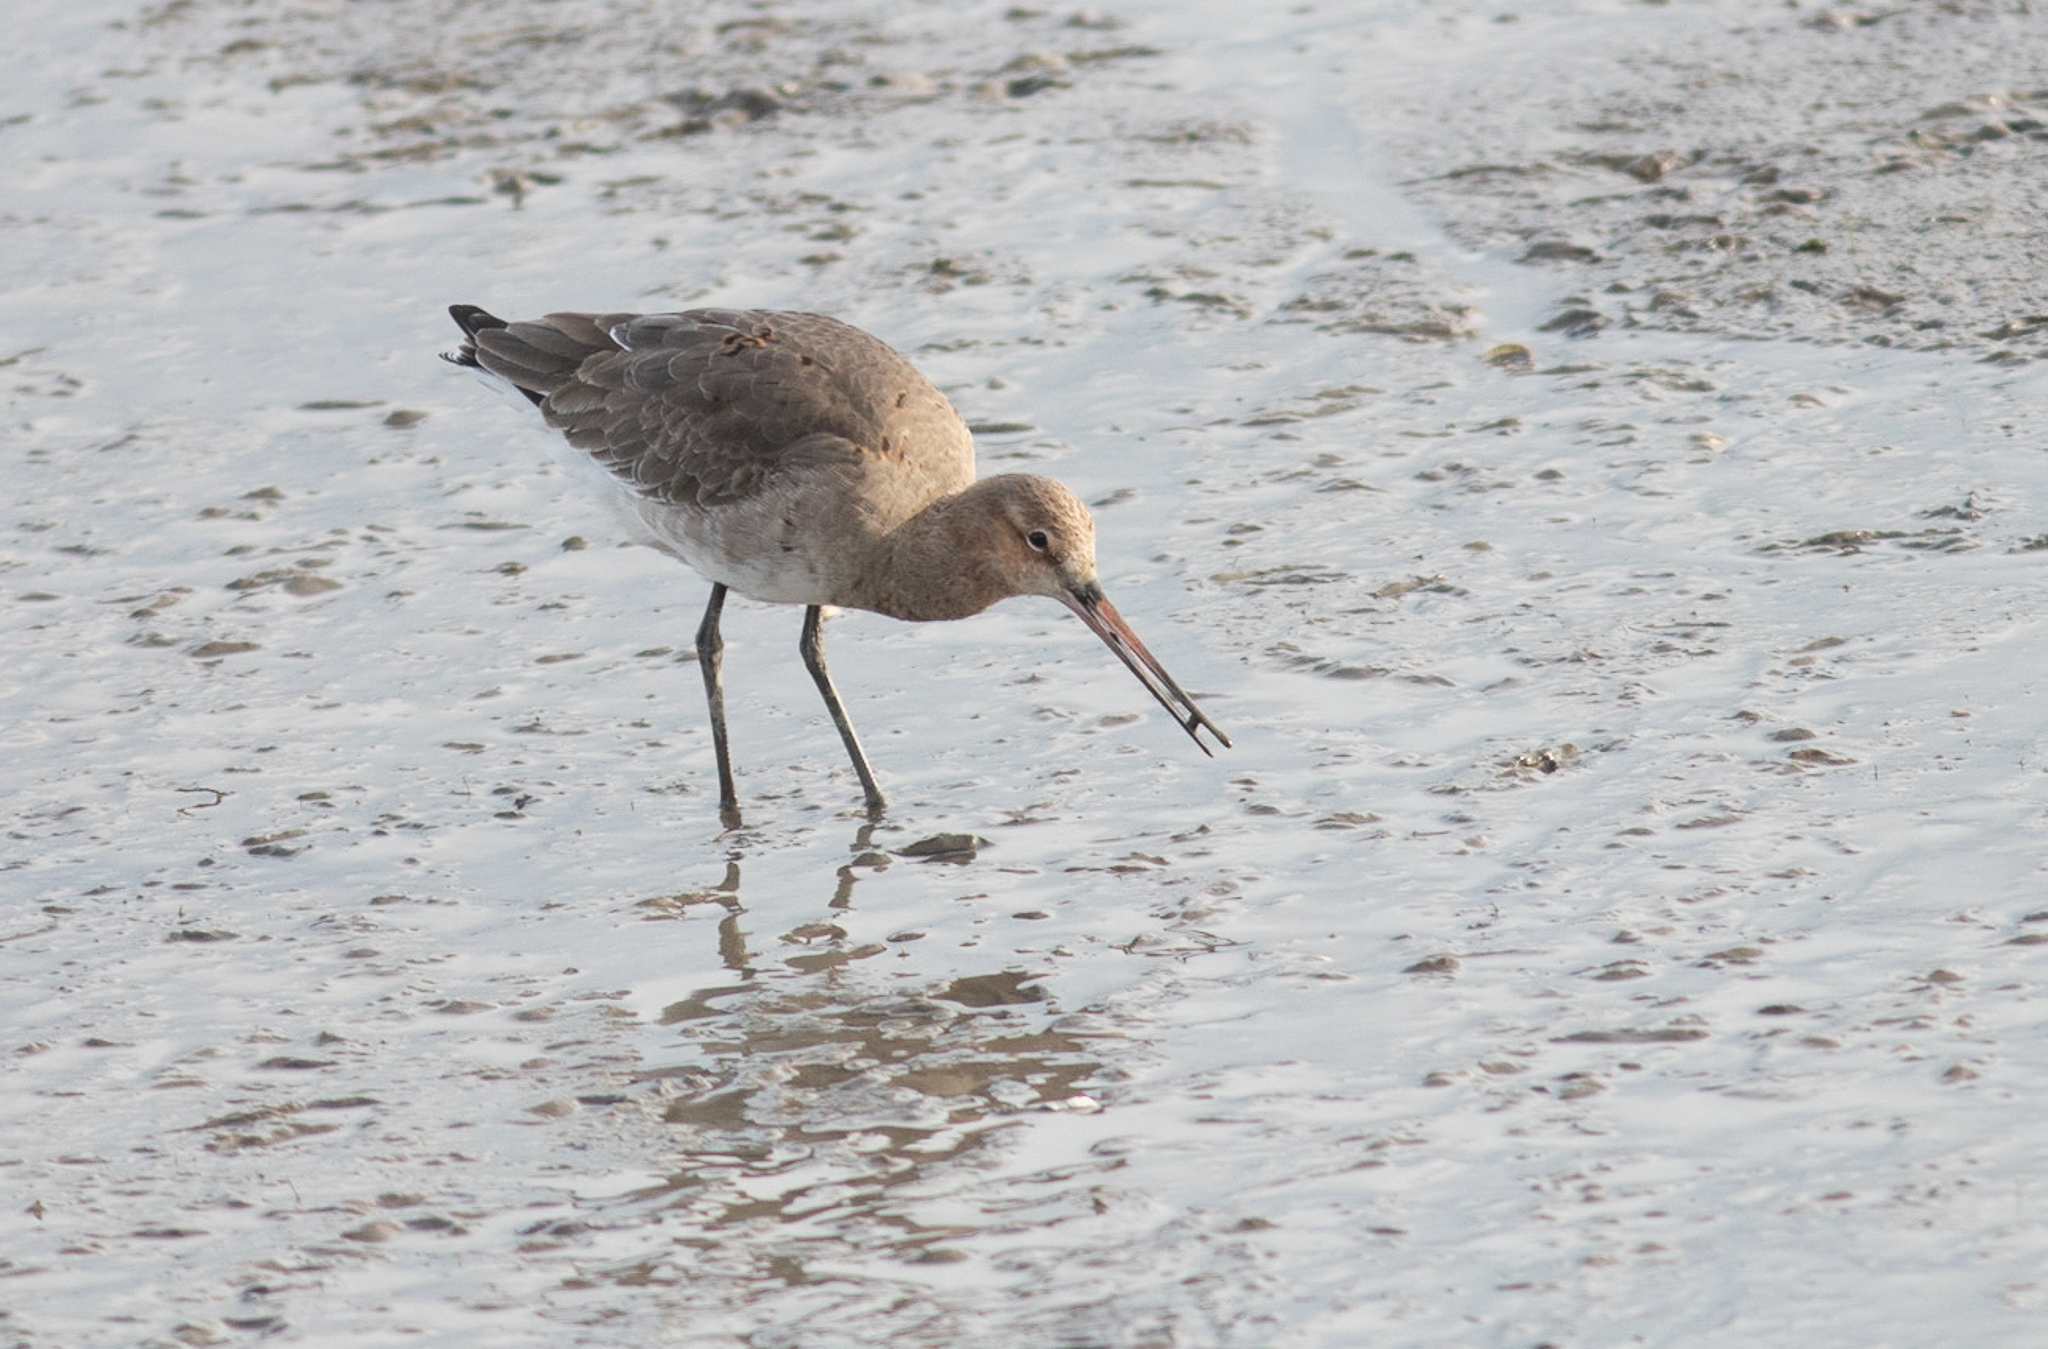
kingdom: Animalia
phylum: Chordata
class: Aves
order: Charadriiformes
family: Scolopacidae
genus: Limosa
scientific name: Limosa limosa
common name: Black-tailed godwit
